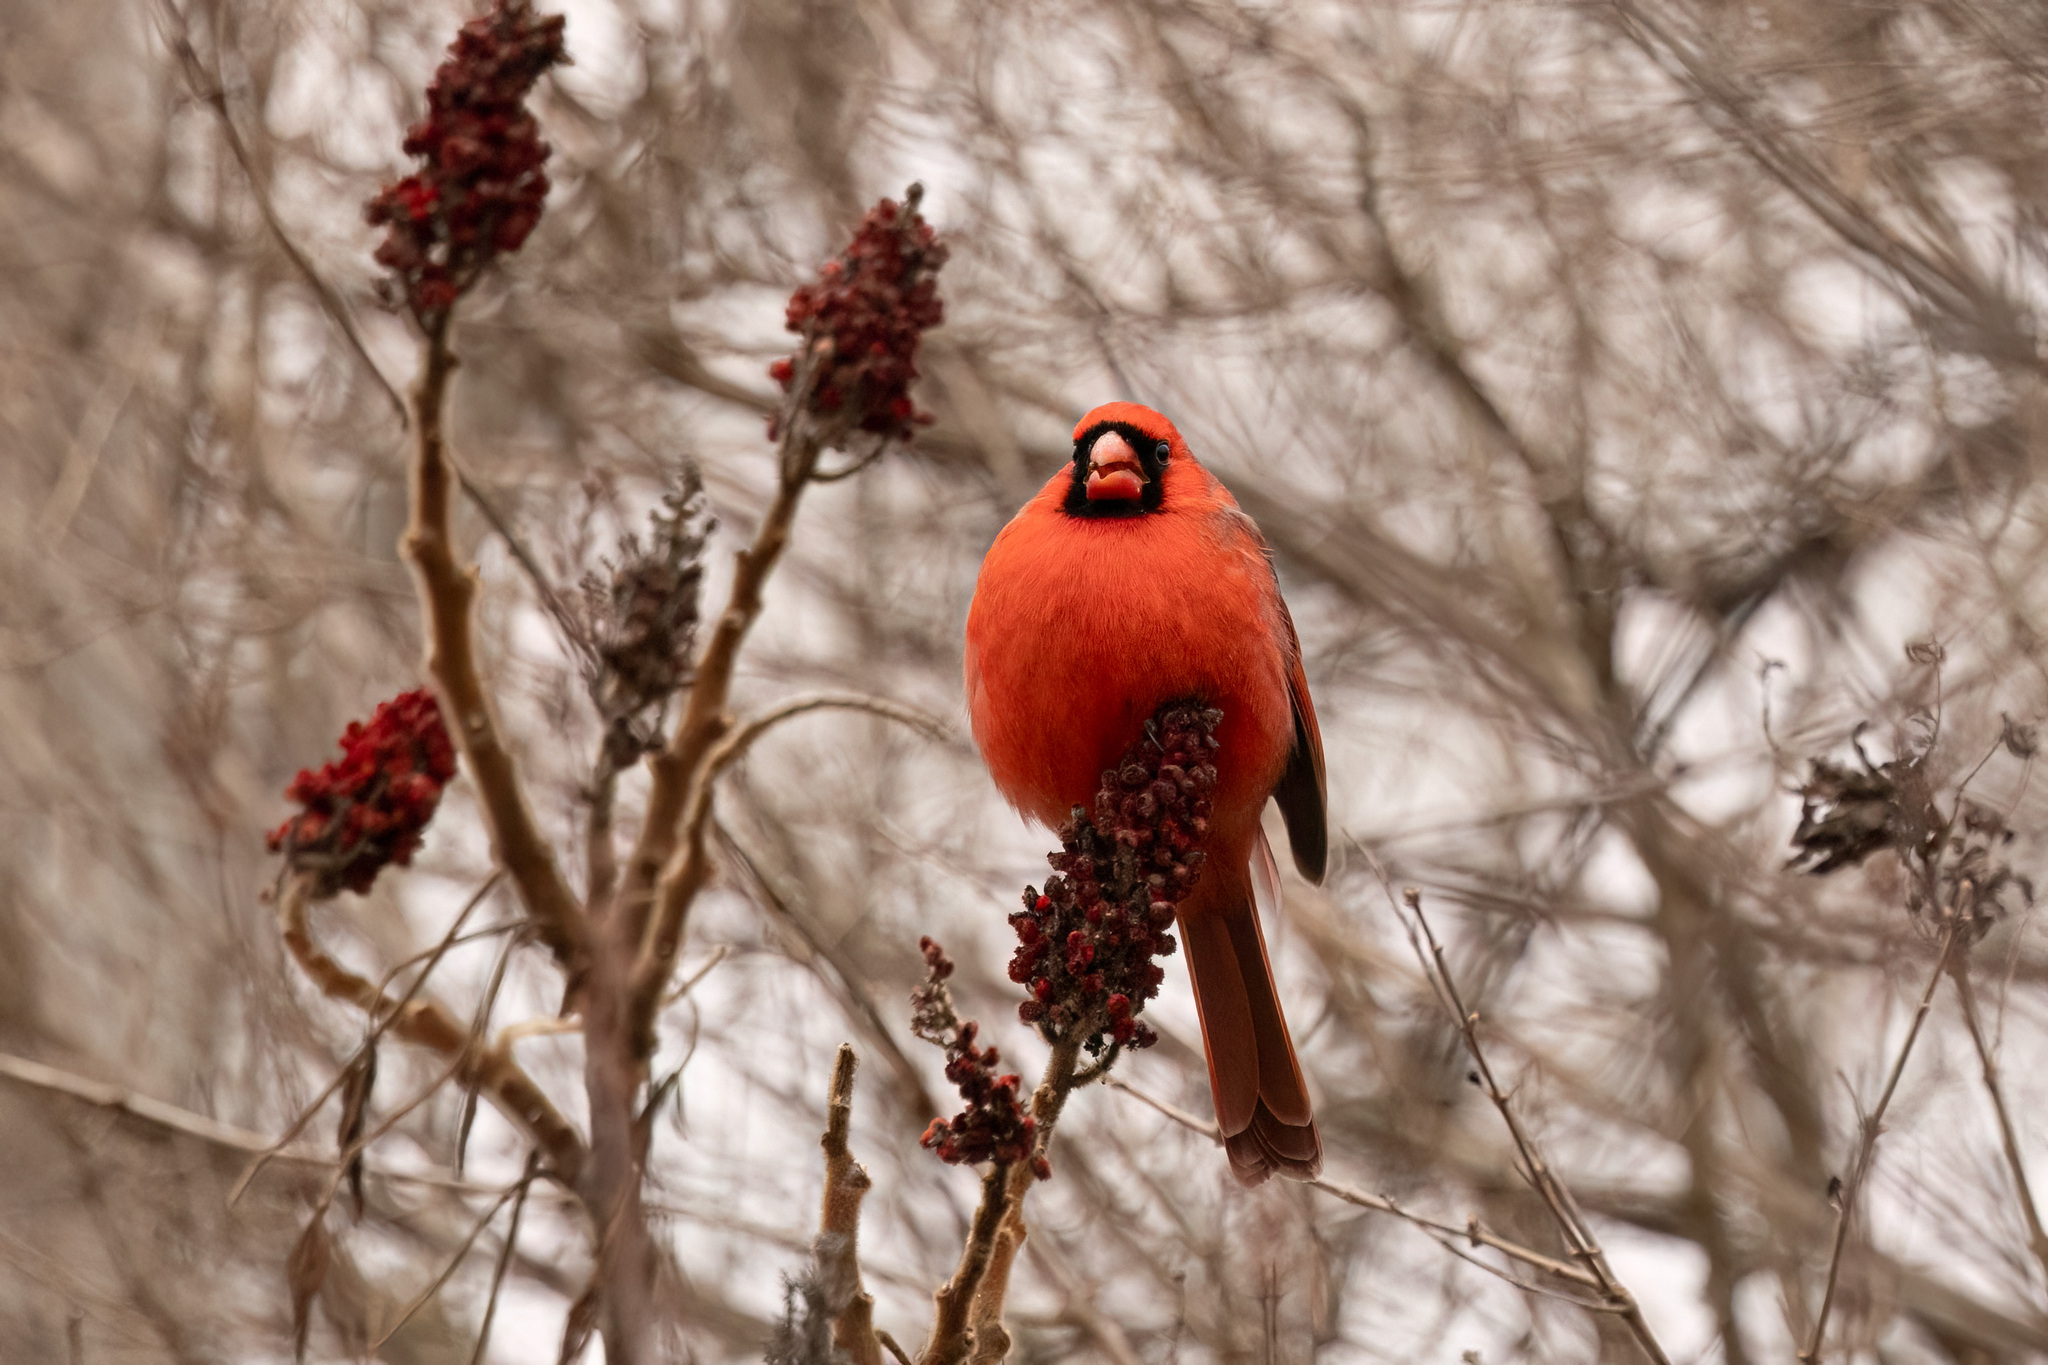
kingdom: Animalia
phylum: Chordata
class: Aves
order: Passeriformes
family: Cardinalidae
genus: Cardinalis
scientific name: Cardinalis cardinalis
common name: Northern cardinal
